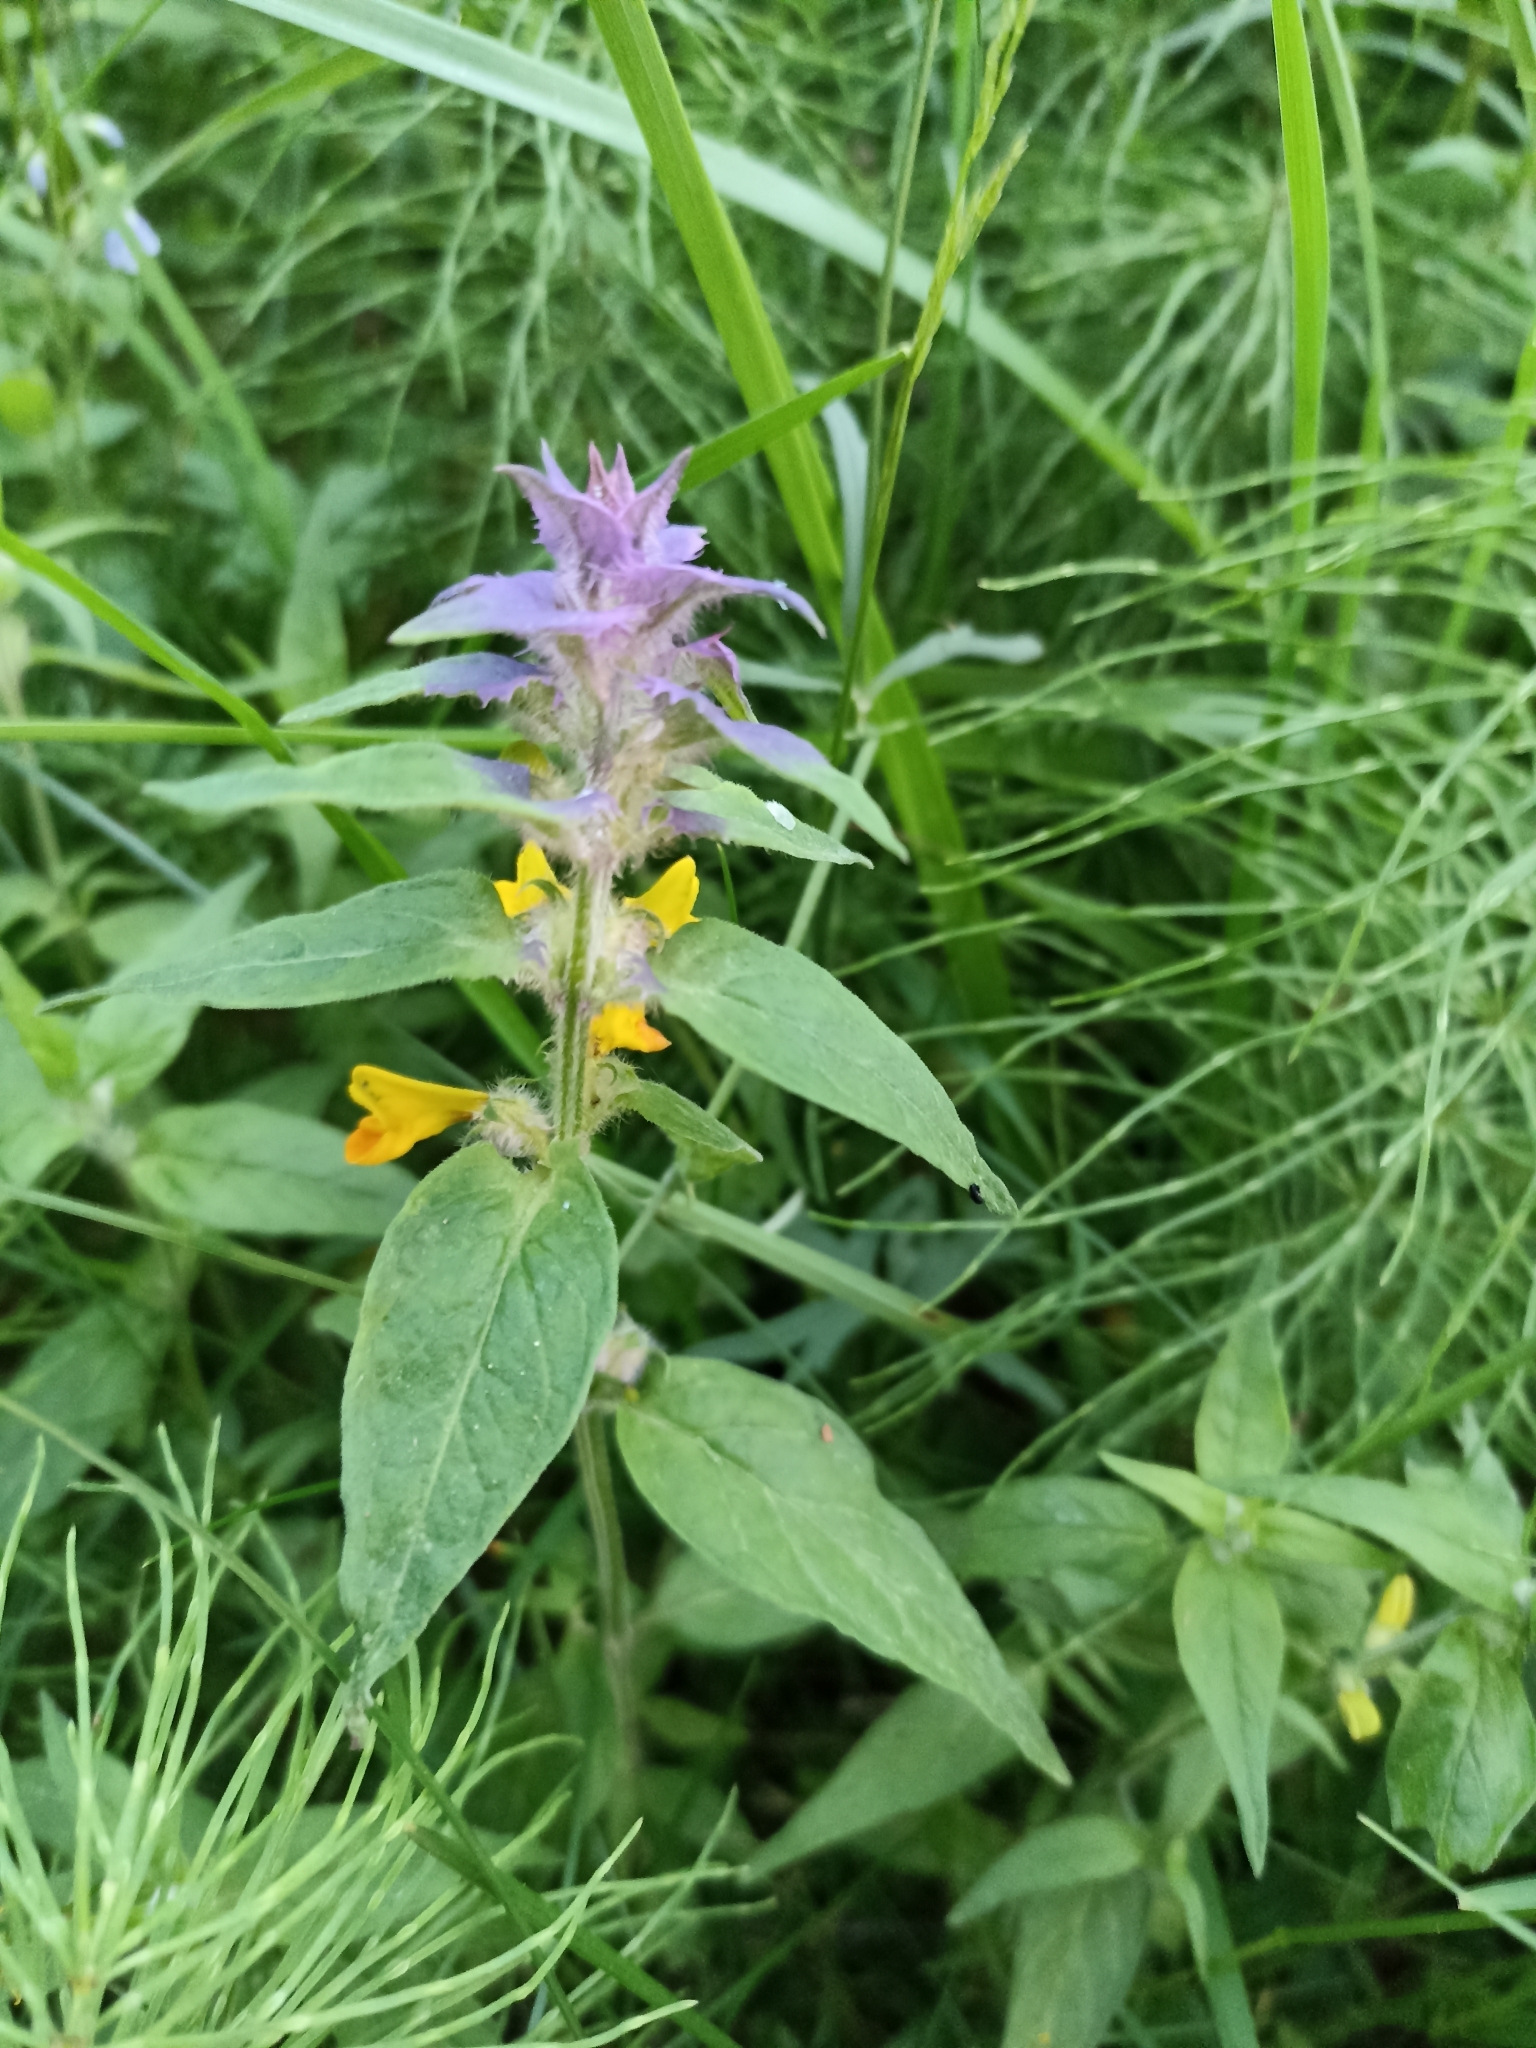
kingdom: Plantae
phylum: Tracheophyta
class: Magnoliopsida
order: Lamiales
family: Orobanchaceae
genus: Melampyrum
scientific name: Melampyrum nemorosum
